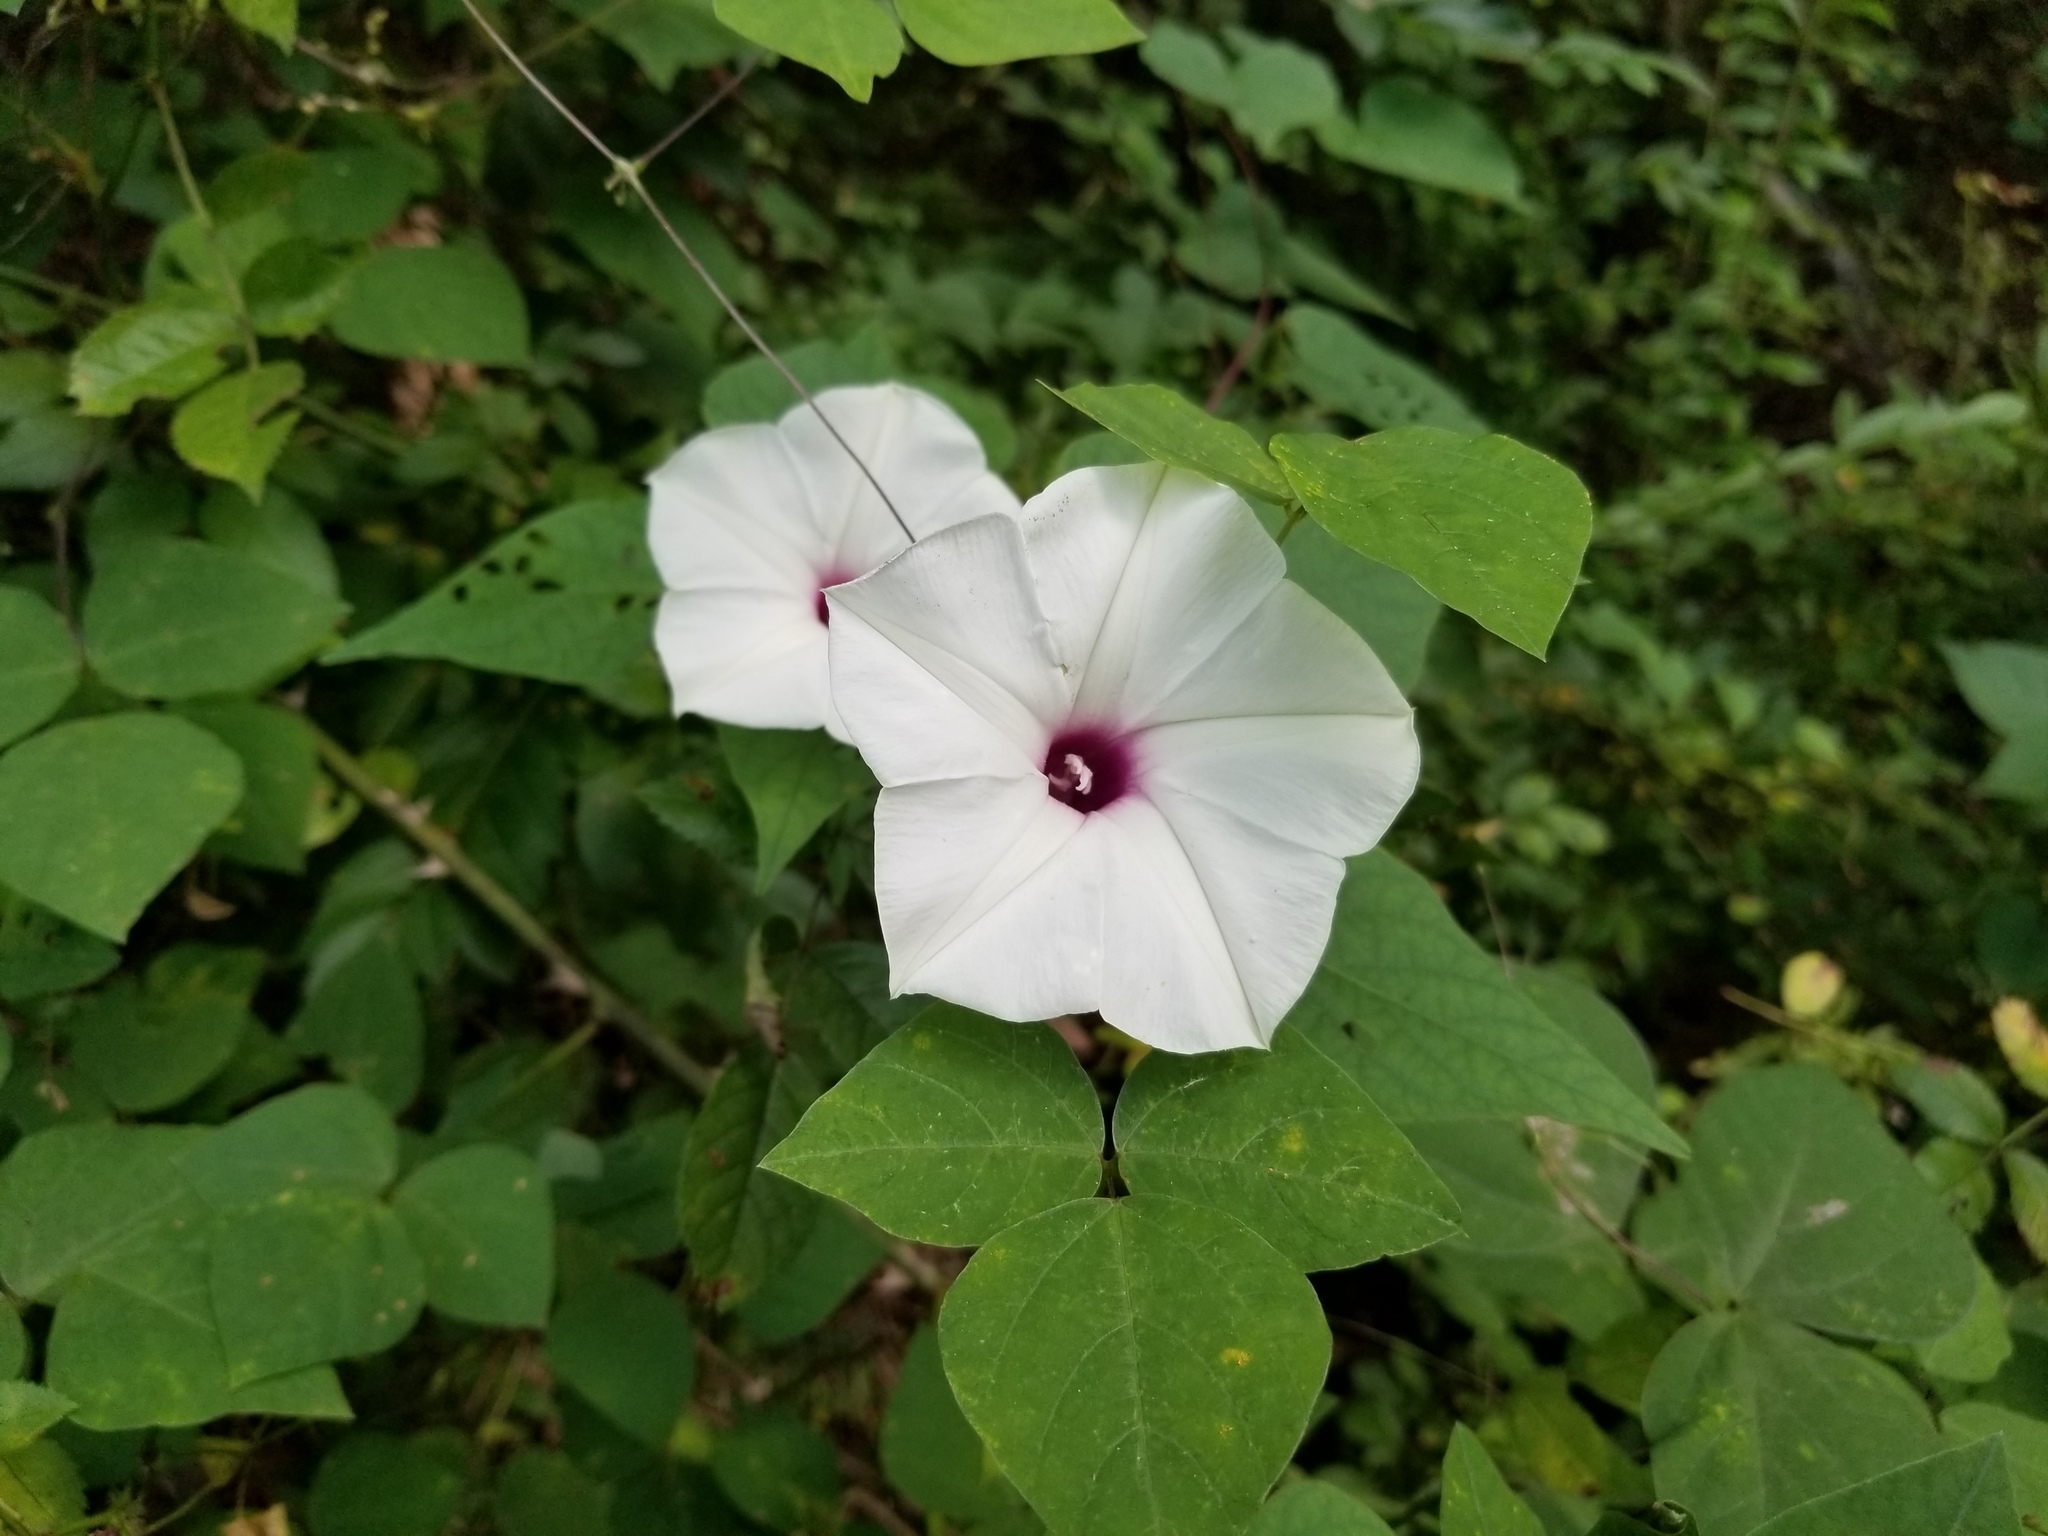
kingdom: Plantae
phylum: Tracheophyta
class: Magnoliopsida
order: Solanales
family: Convolvulaceae
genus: Ipomoea
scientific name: Ipomoea pandurata
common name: Man-of-the-earth
